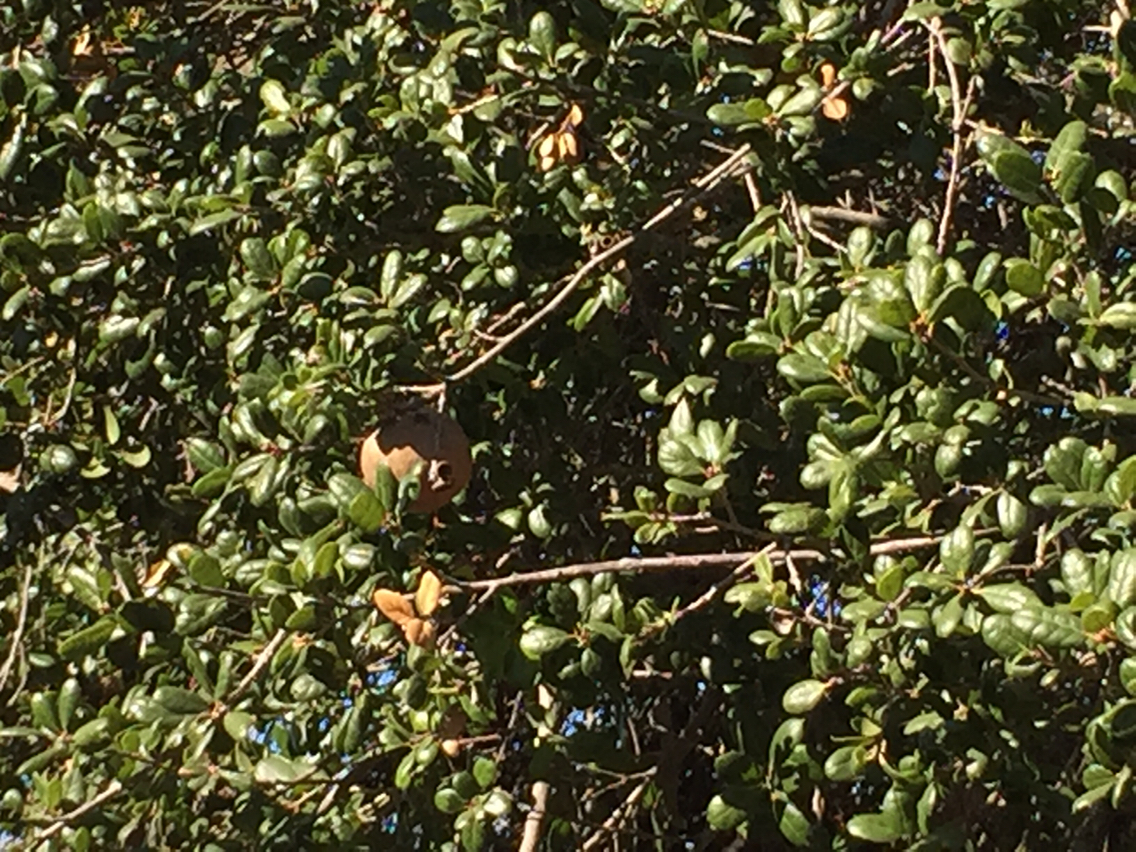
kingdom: Animalia
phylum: Arthropoda
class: Insecta
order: Hymenoptera
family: Cynipidae
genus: Amphibolips
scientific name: Amphibolips quercuspomiformis
